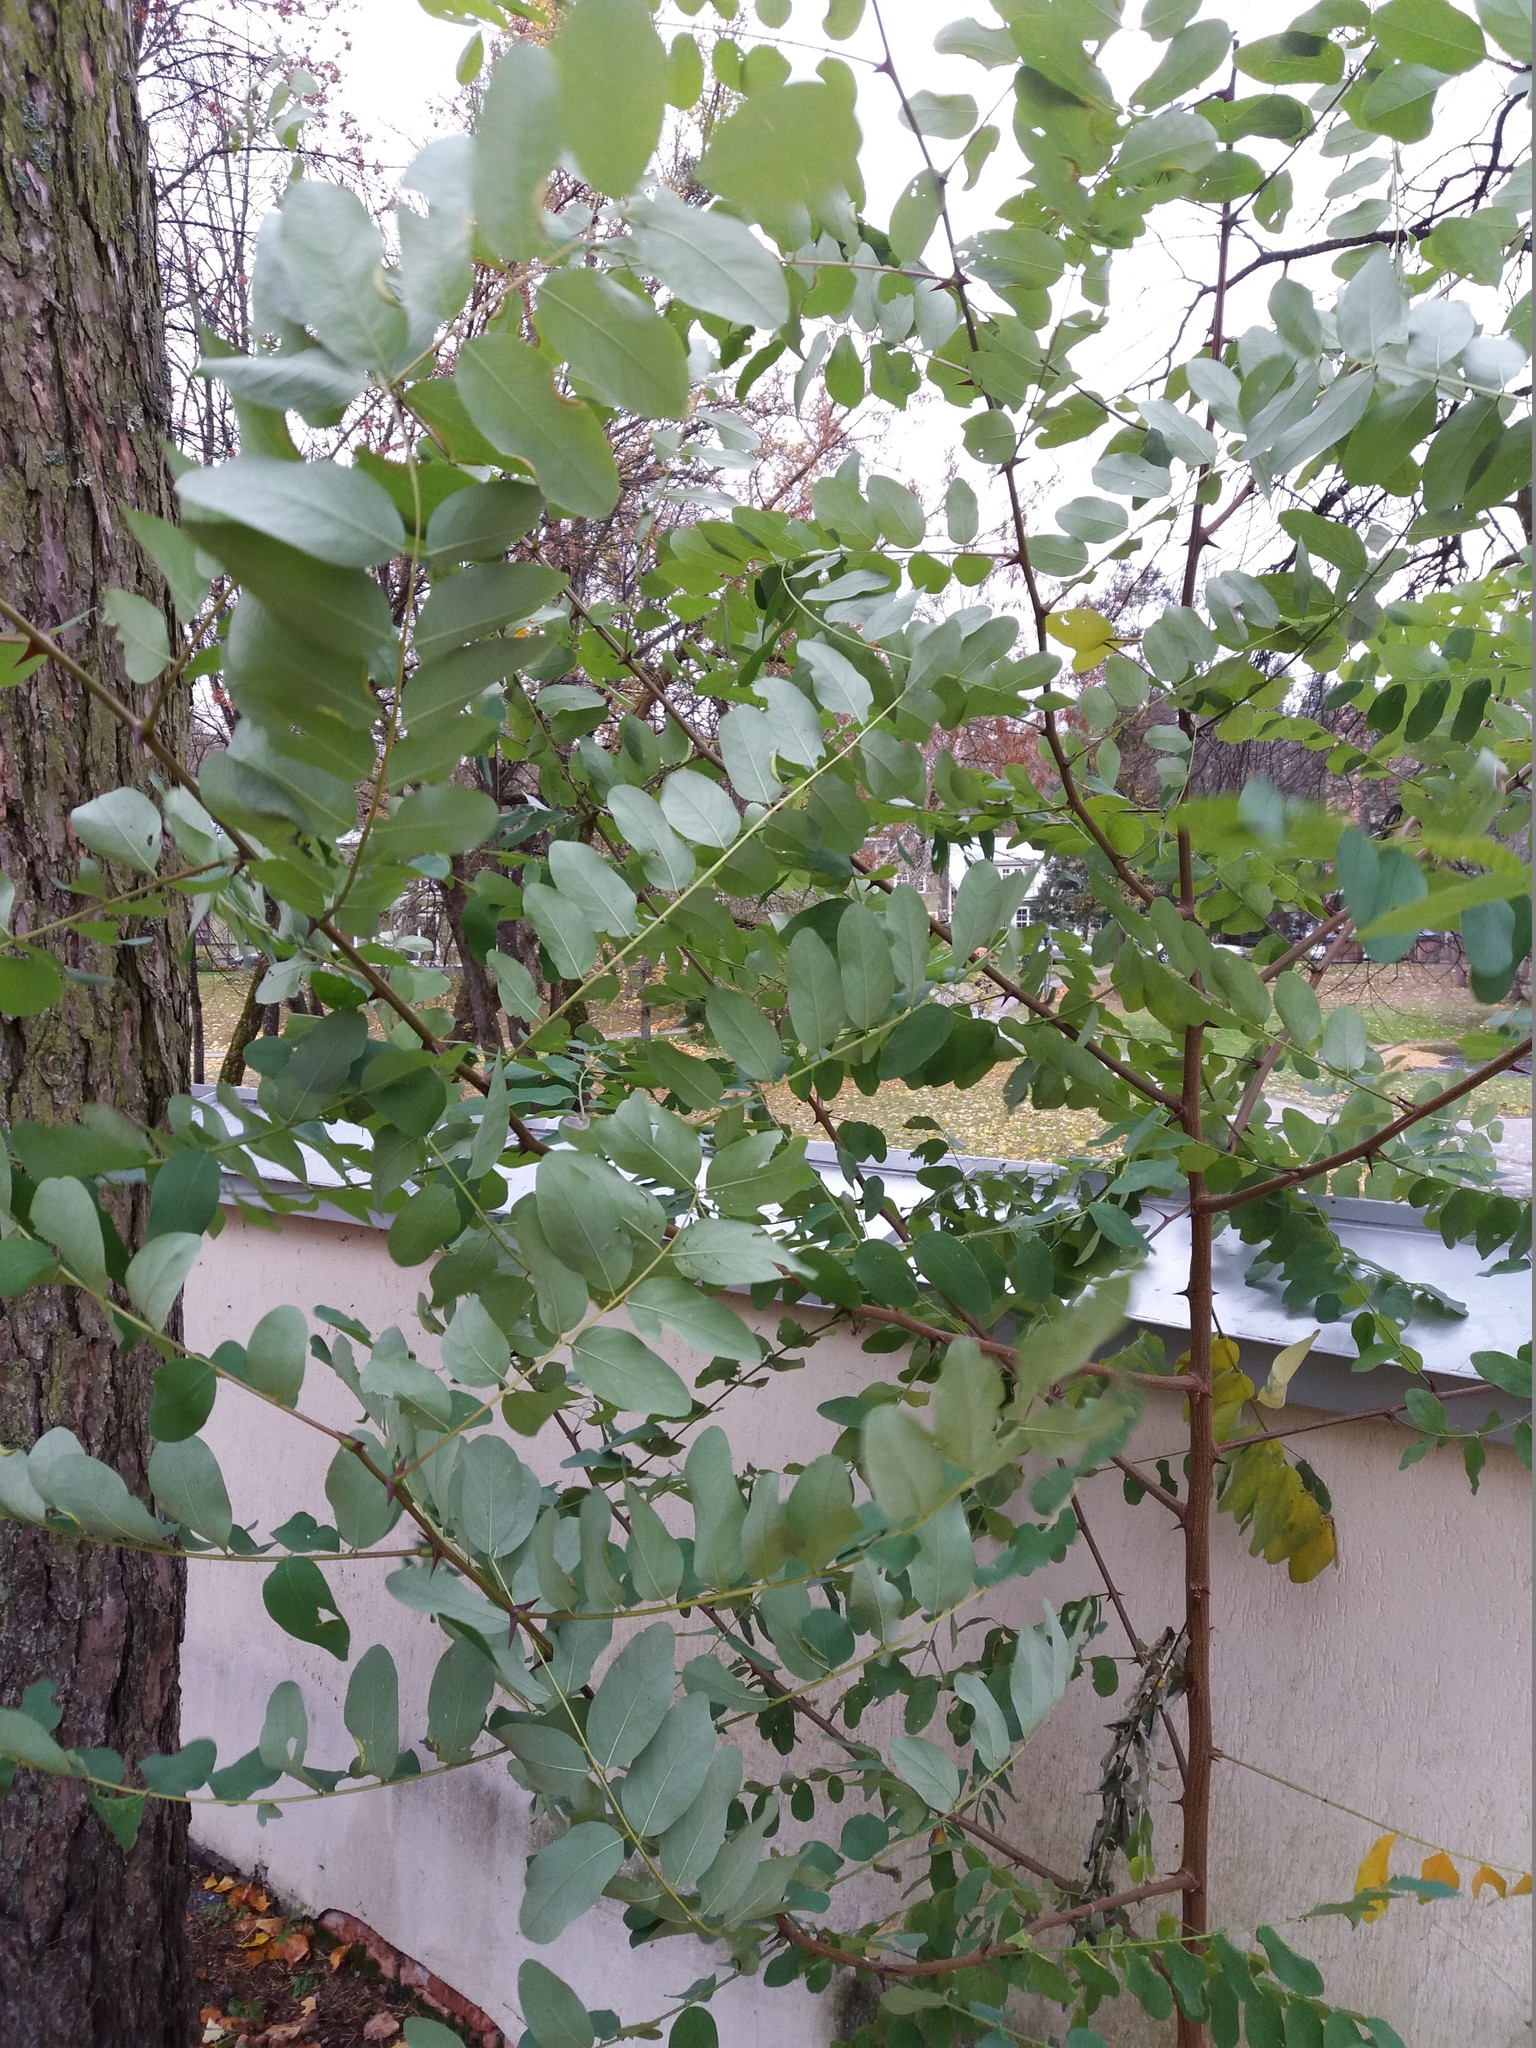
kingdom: Plantae
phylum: Tracheophyta
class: Magnoliopsida
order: Fabales
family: Fabaceae
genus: Robinia
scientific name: Robinia pseudoacacia
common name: Black locust
